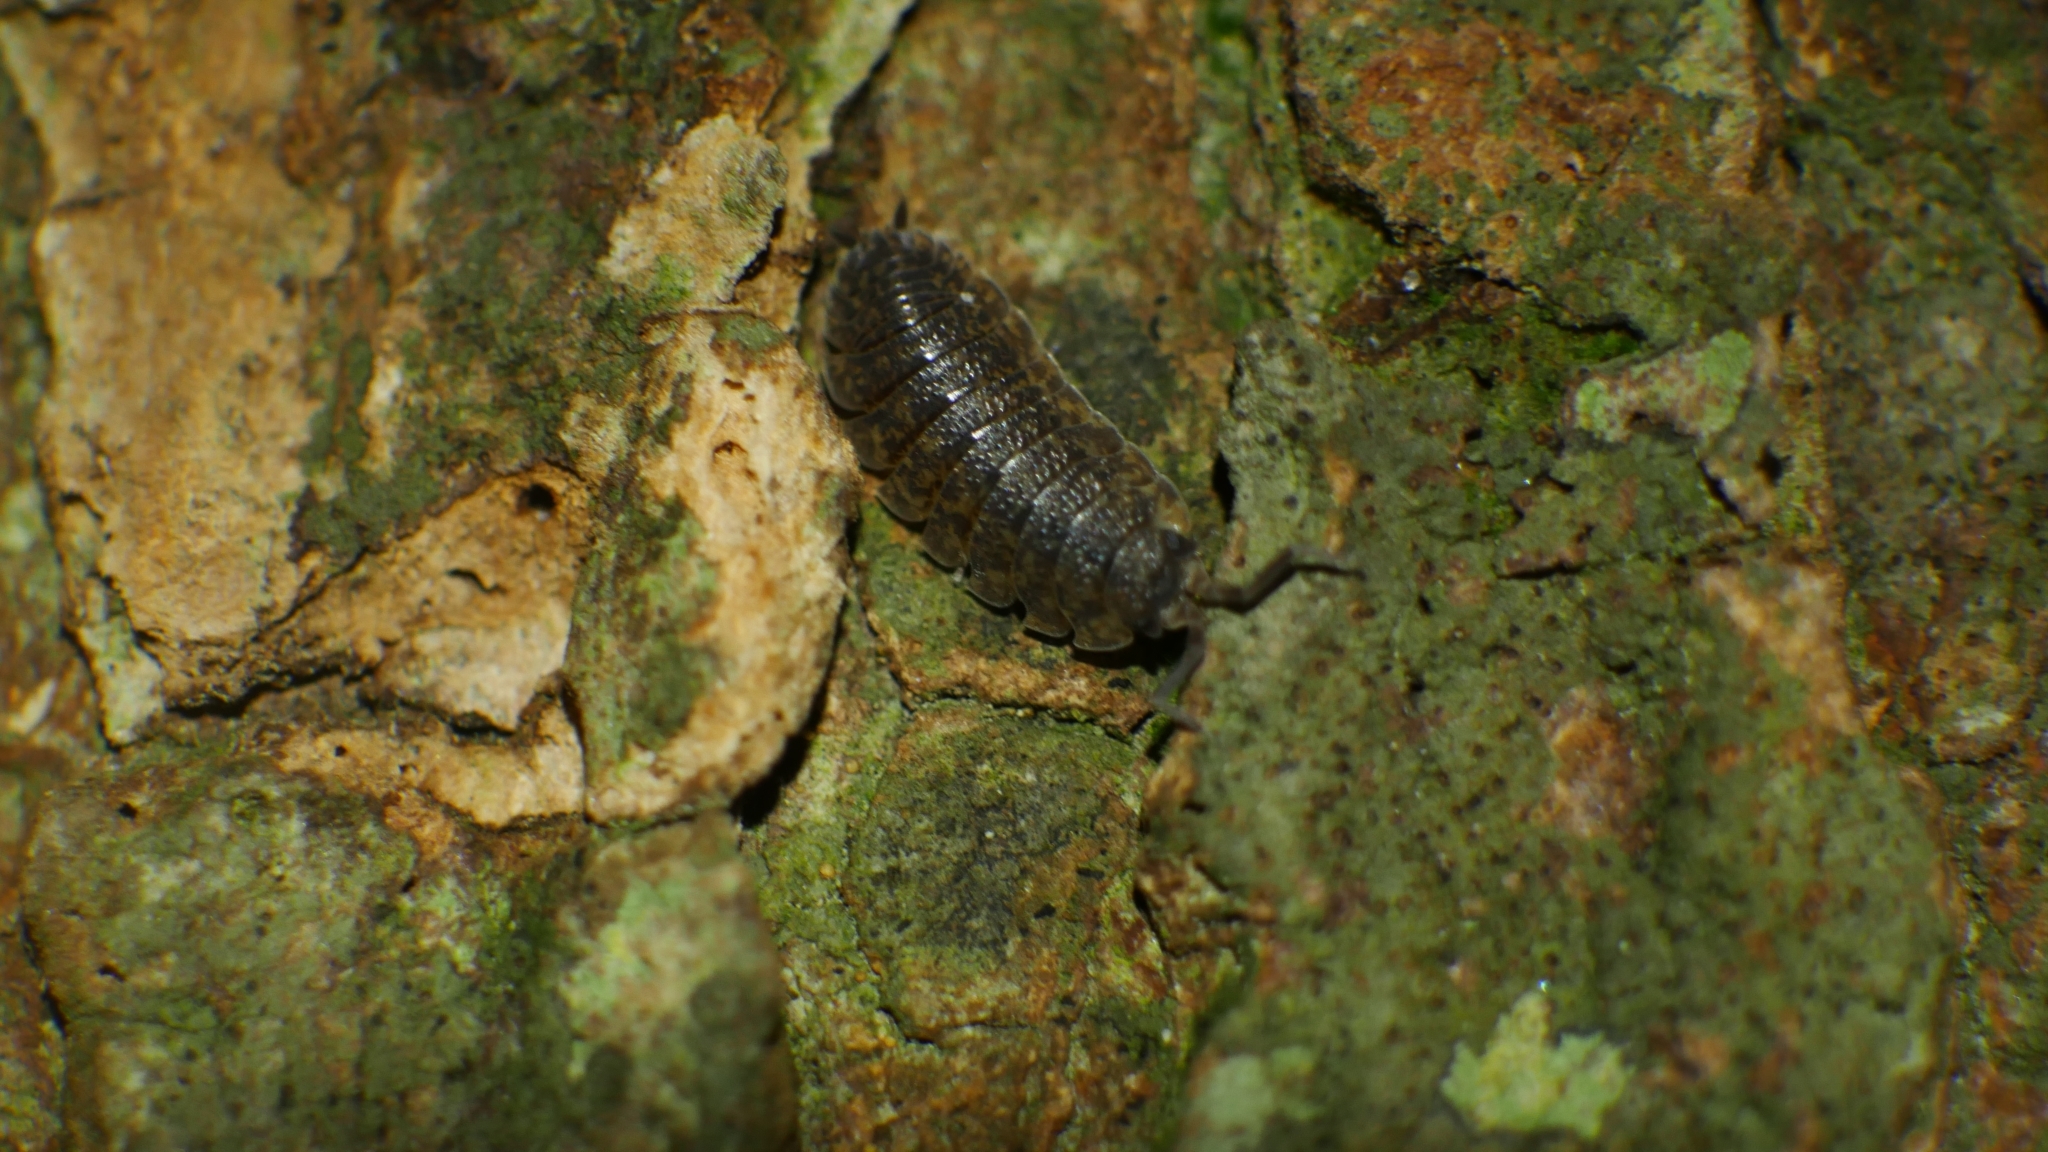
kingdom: Animalia
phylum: Arthropoda
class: Malacostraca
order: Isopoda
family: Porcellionidae
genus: Porcellio
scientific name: Porcellio scaber
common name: Common rough woodlouse
